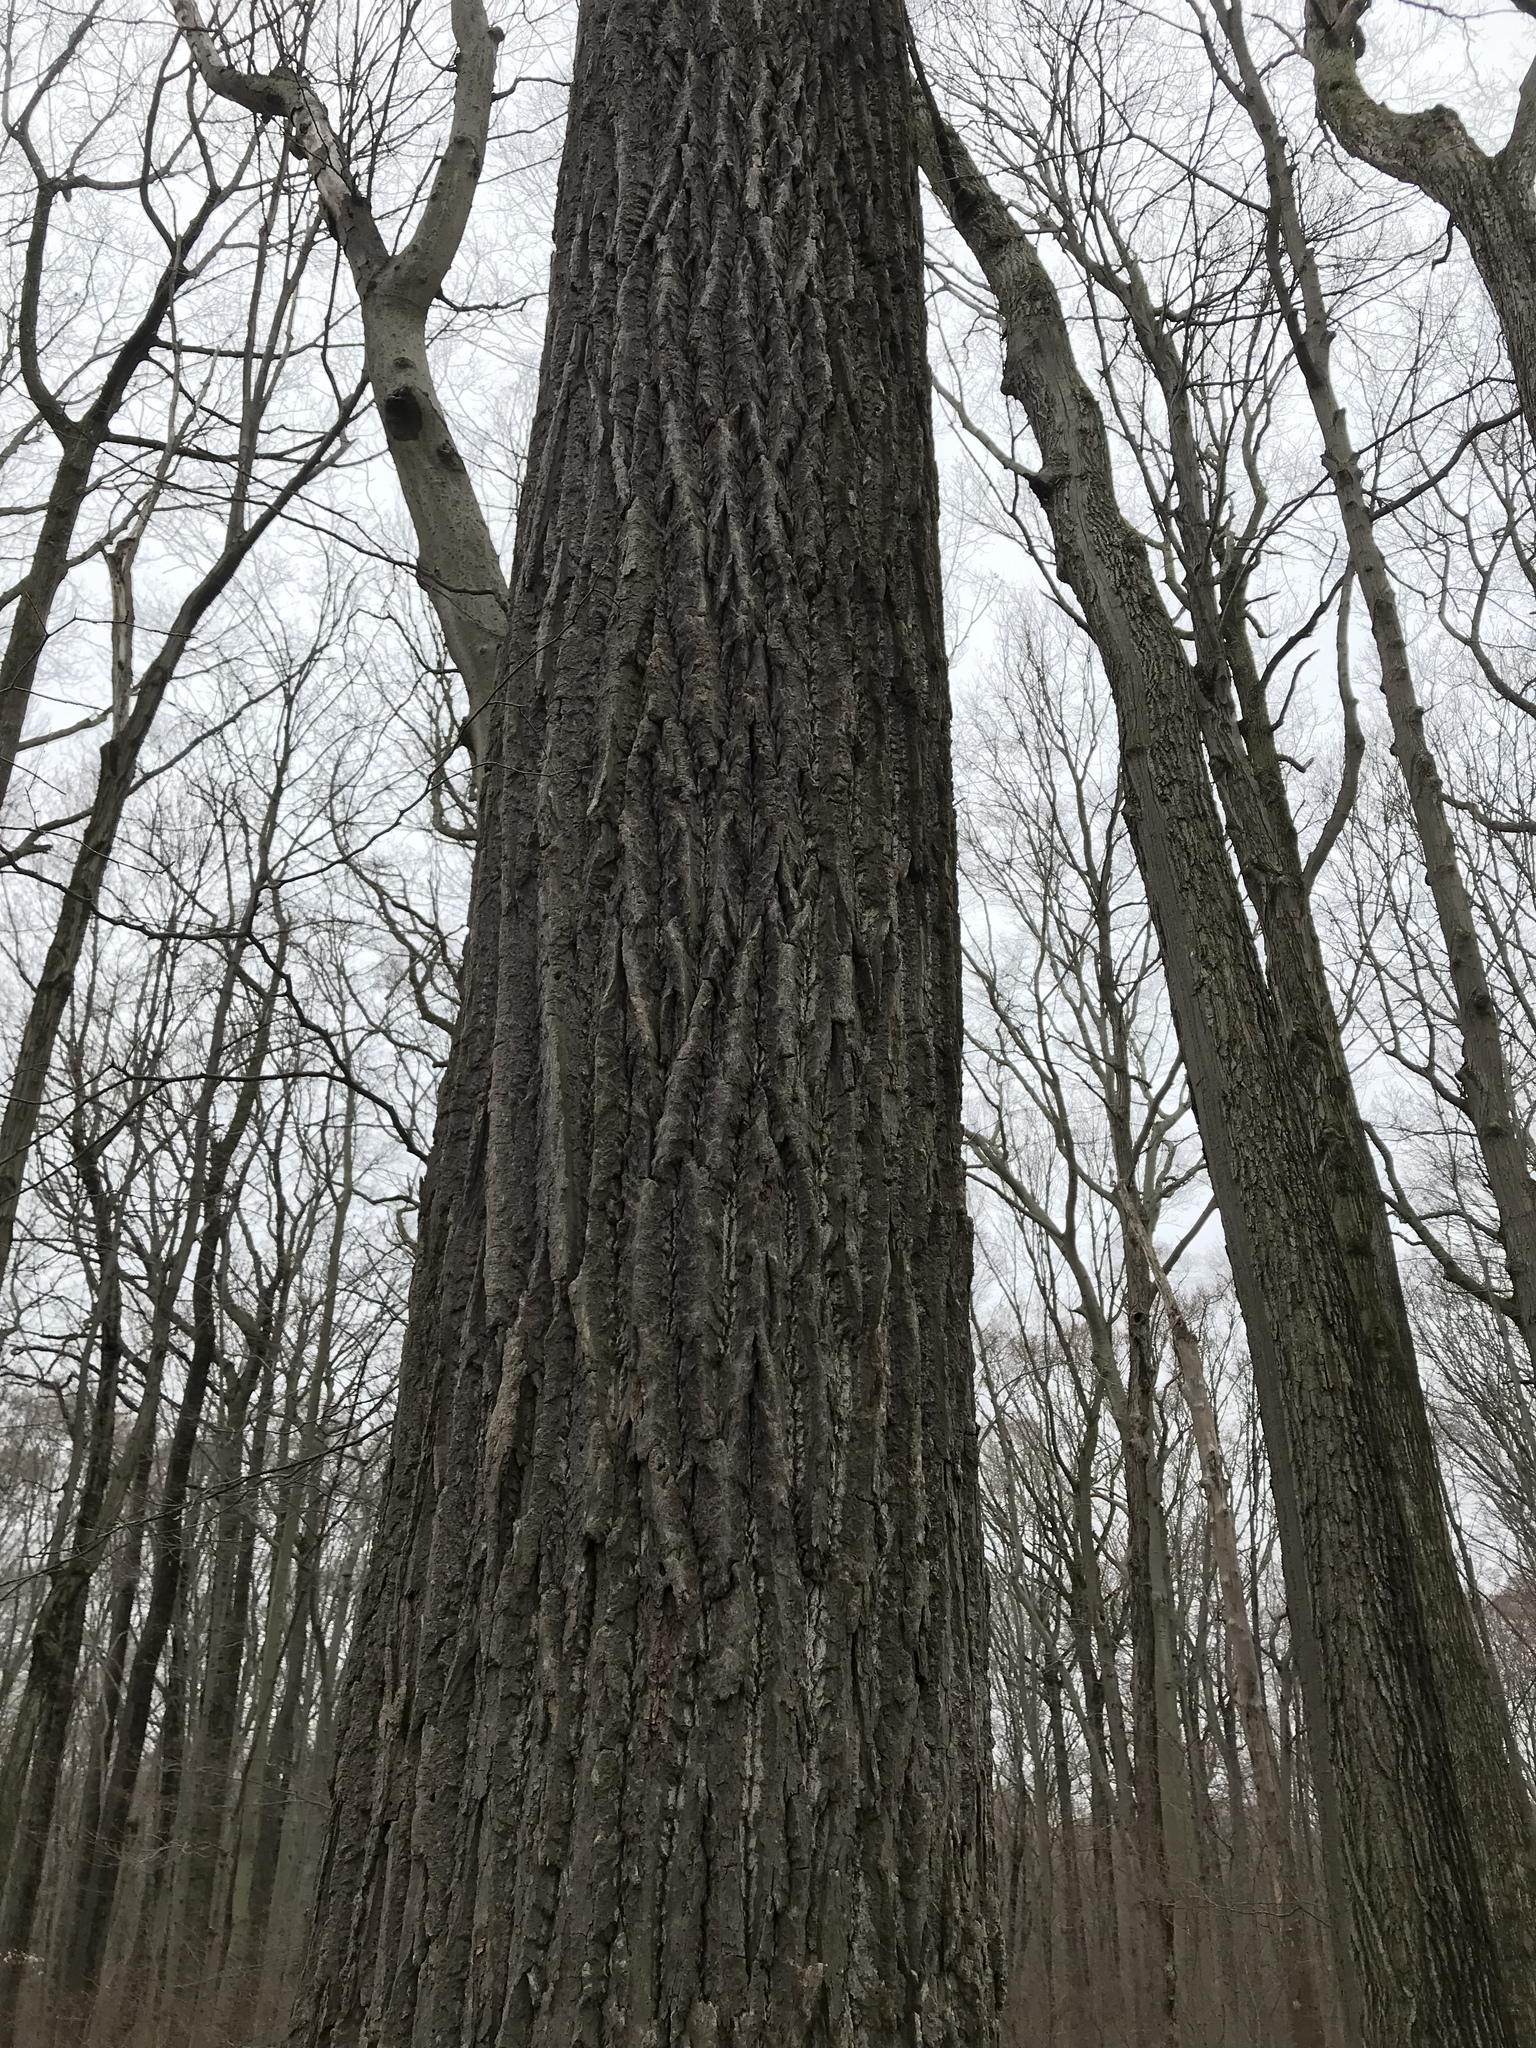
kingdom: Plantae
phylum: Tracheophyta
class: Magnoliopsida
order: Magnoliales
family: Magnoliaceae
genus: Liriodendron
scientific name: Liriodendron tulipifera
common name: Tulip tree
